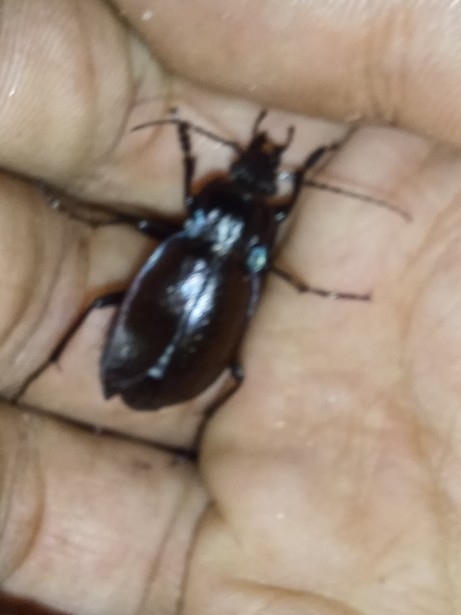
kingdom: Animalia
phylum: Arthropoda
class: Insecta
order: Coleoptera
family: Carabidae
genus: Carabus
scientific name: Carabus nemoralis
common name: European ground beetle
